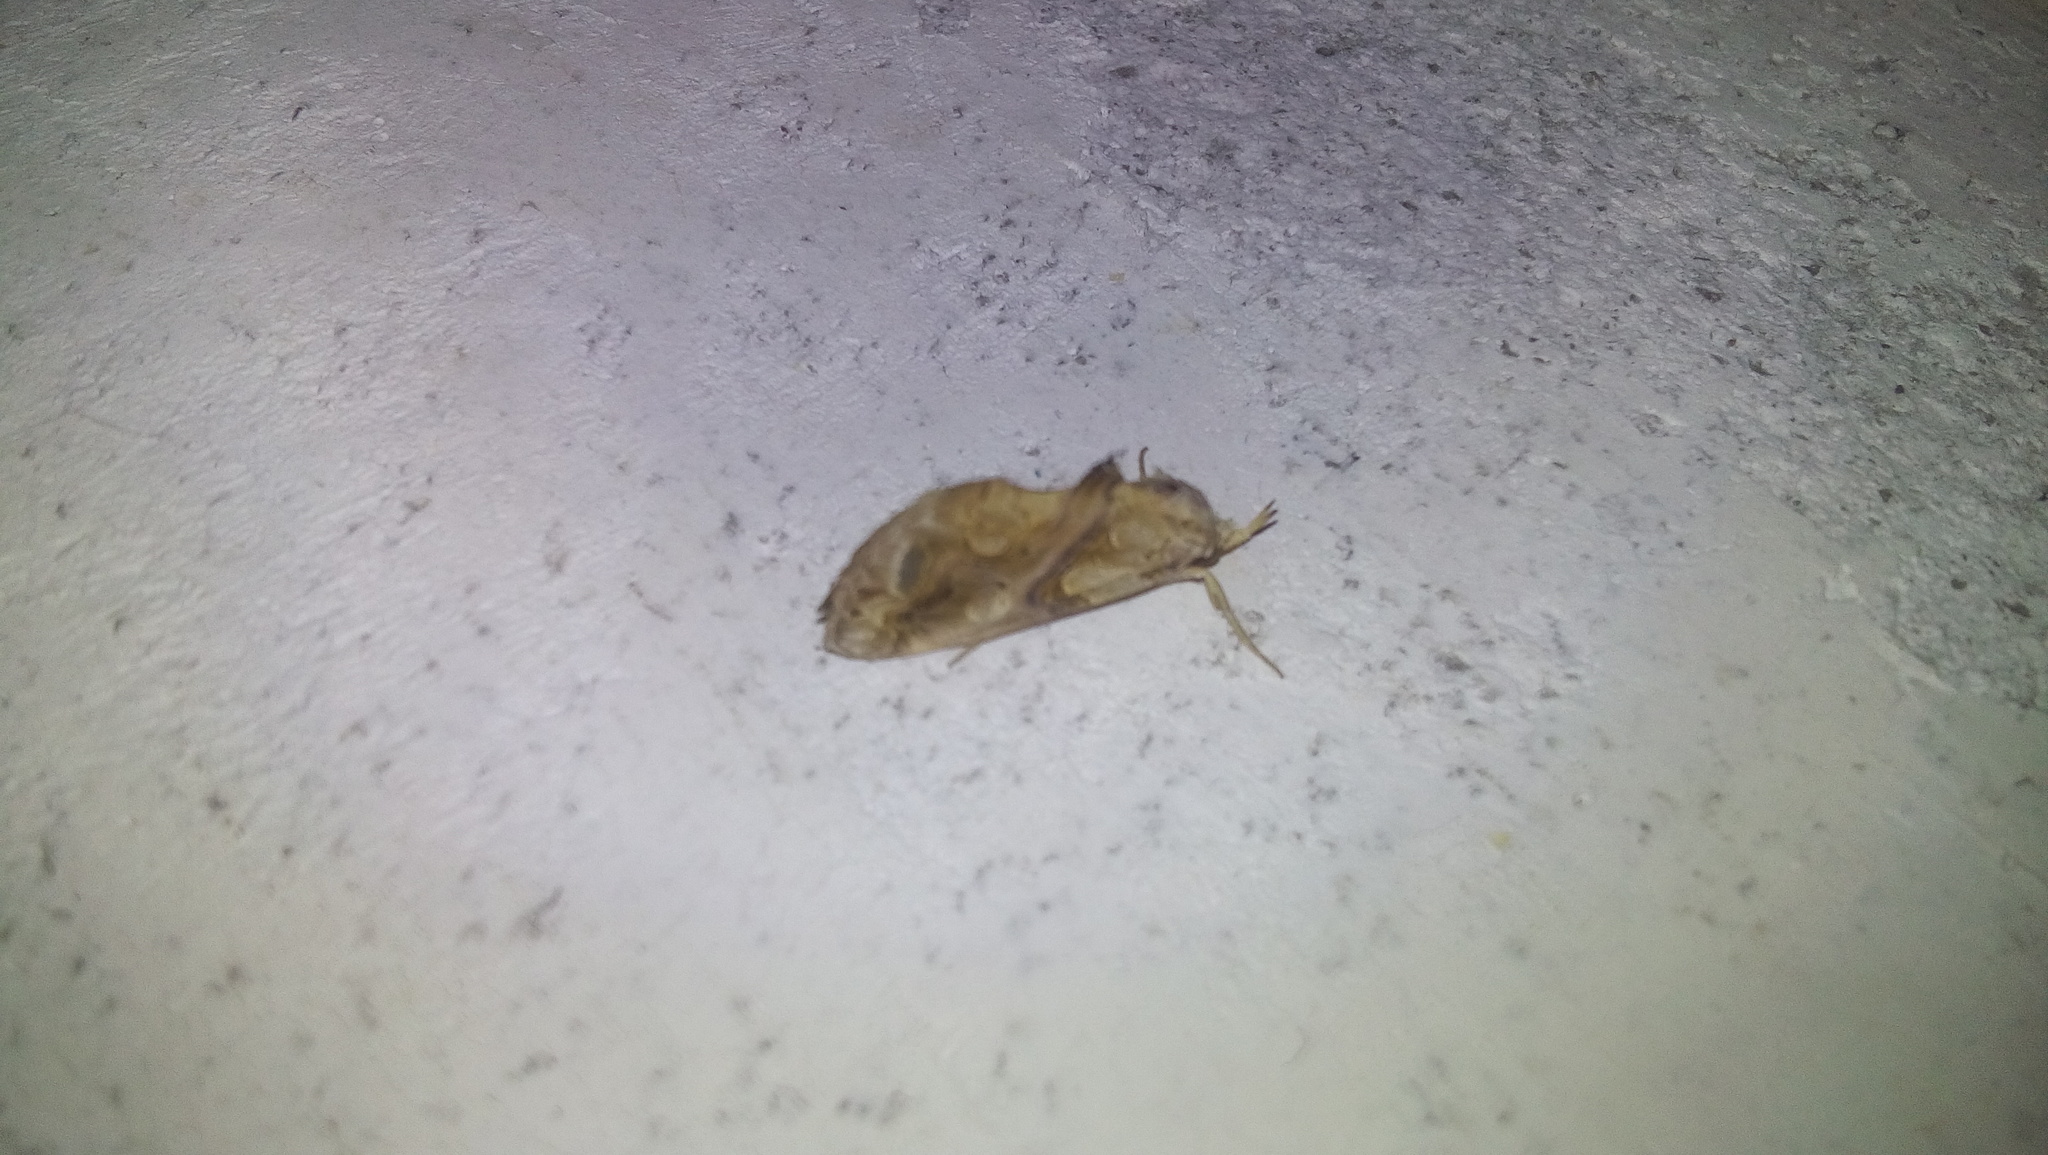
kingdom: Animalia
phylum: Arthropoda
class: Insecta
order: Lepidoptera
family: Erebidae
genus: Plusiodonta
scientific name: Plusiodonta compressipalpis
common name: Moonseed moth
